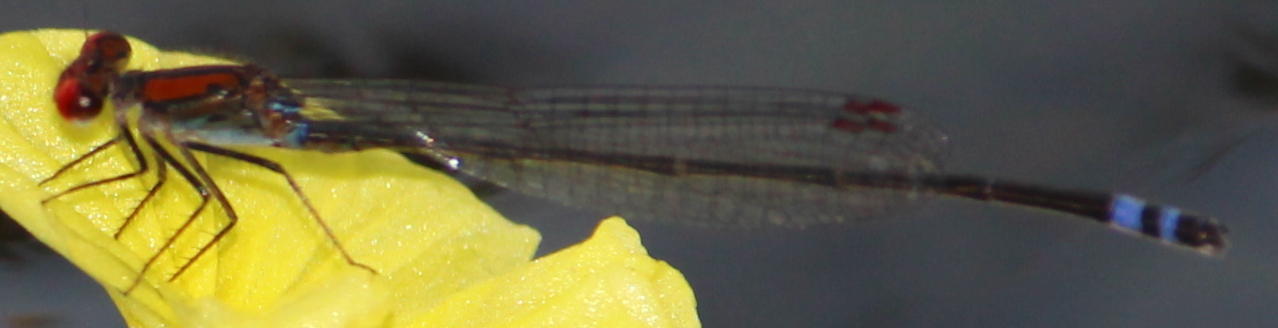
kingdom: Animalia
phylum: Arthropoda
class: Insecta
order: Odonata
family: Coenagrionidae
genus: Pseudagrion
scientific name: Pseudagrion sjoestedti
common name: Variable sprite
